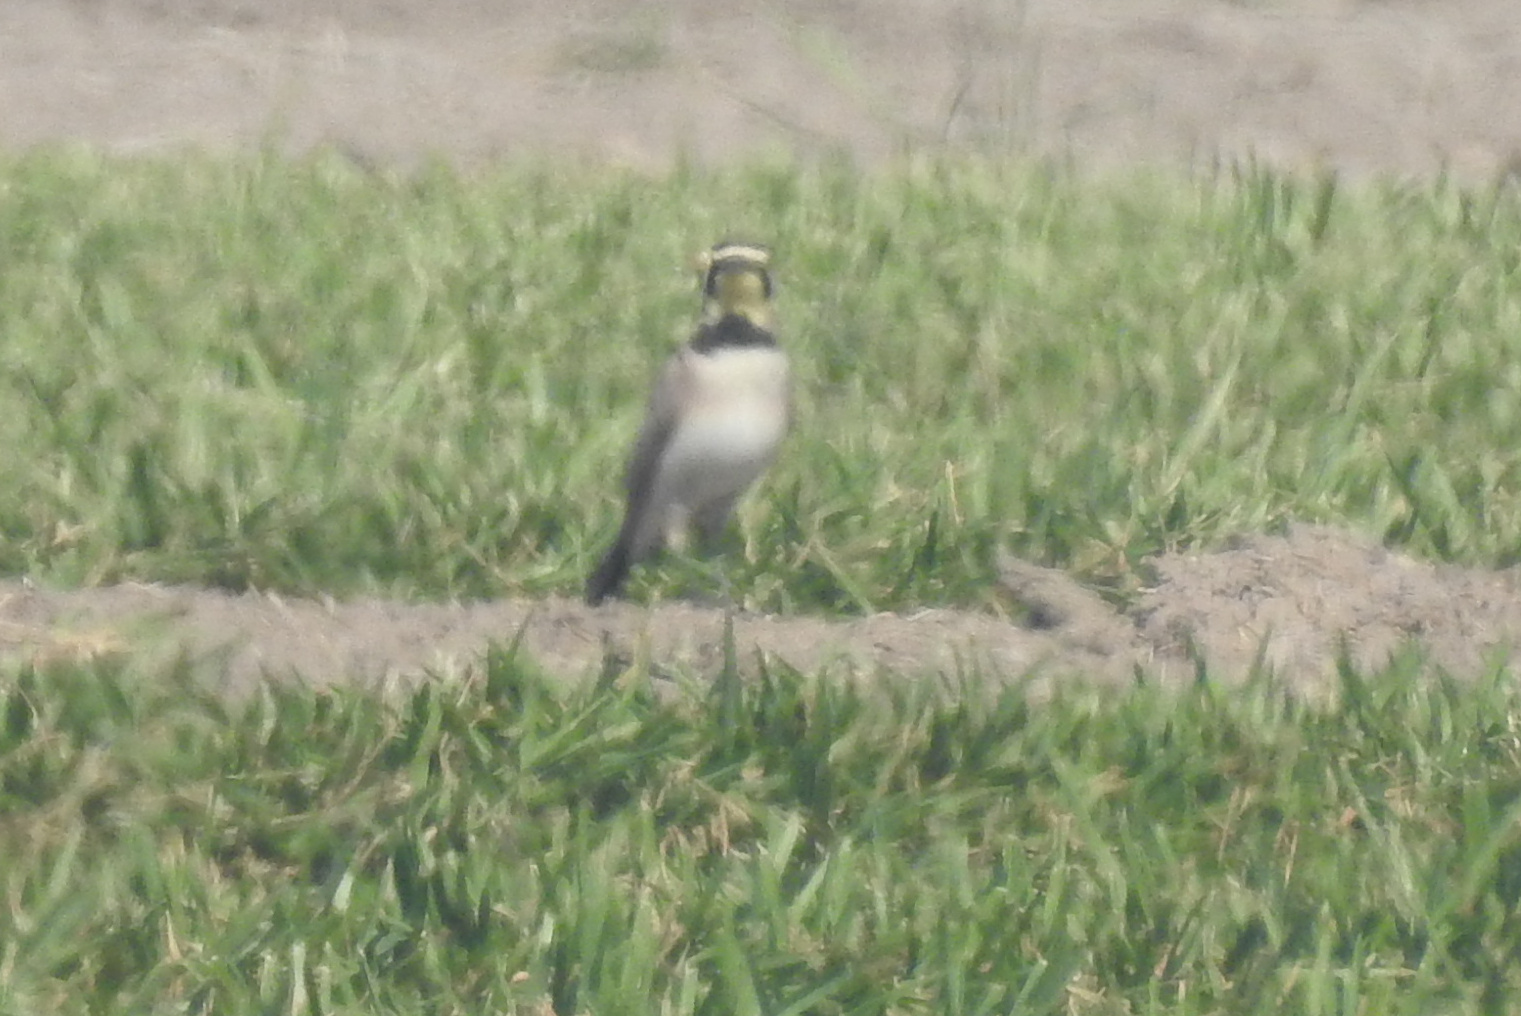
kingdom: Animalia
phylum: Chordata
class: Aves
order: Passeriformes
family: Alaudidae
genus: Eremophila
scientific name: Eremophila alpestris
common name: Horned lark
